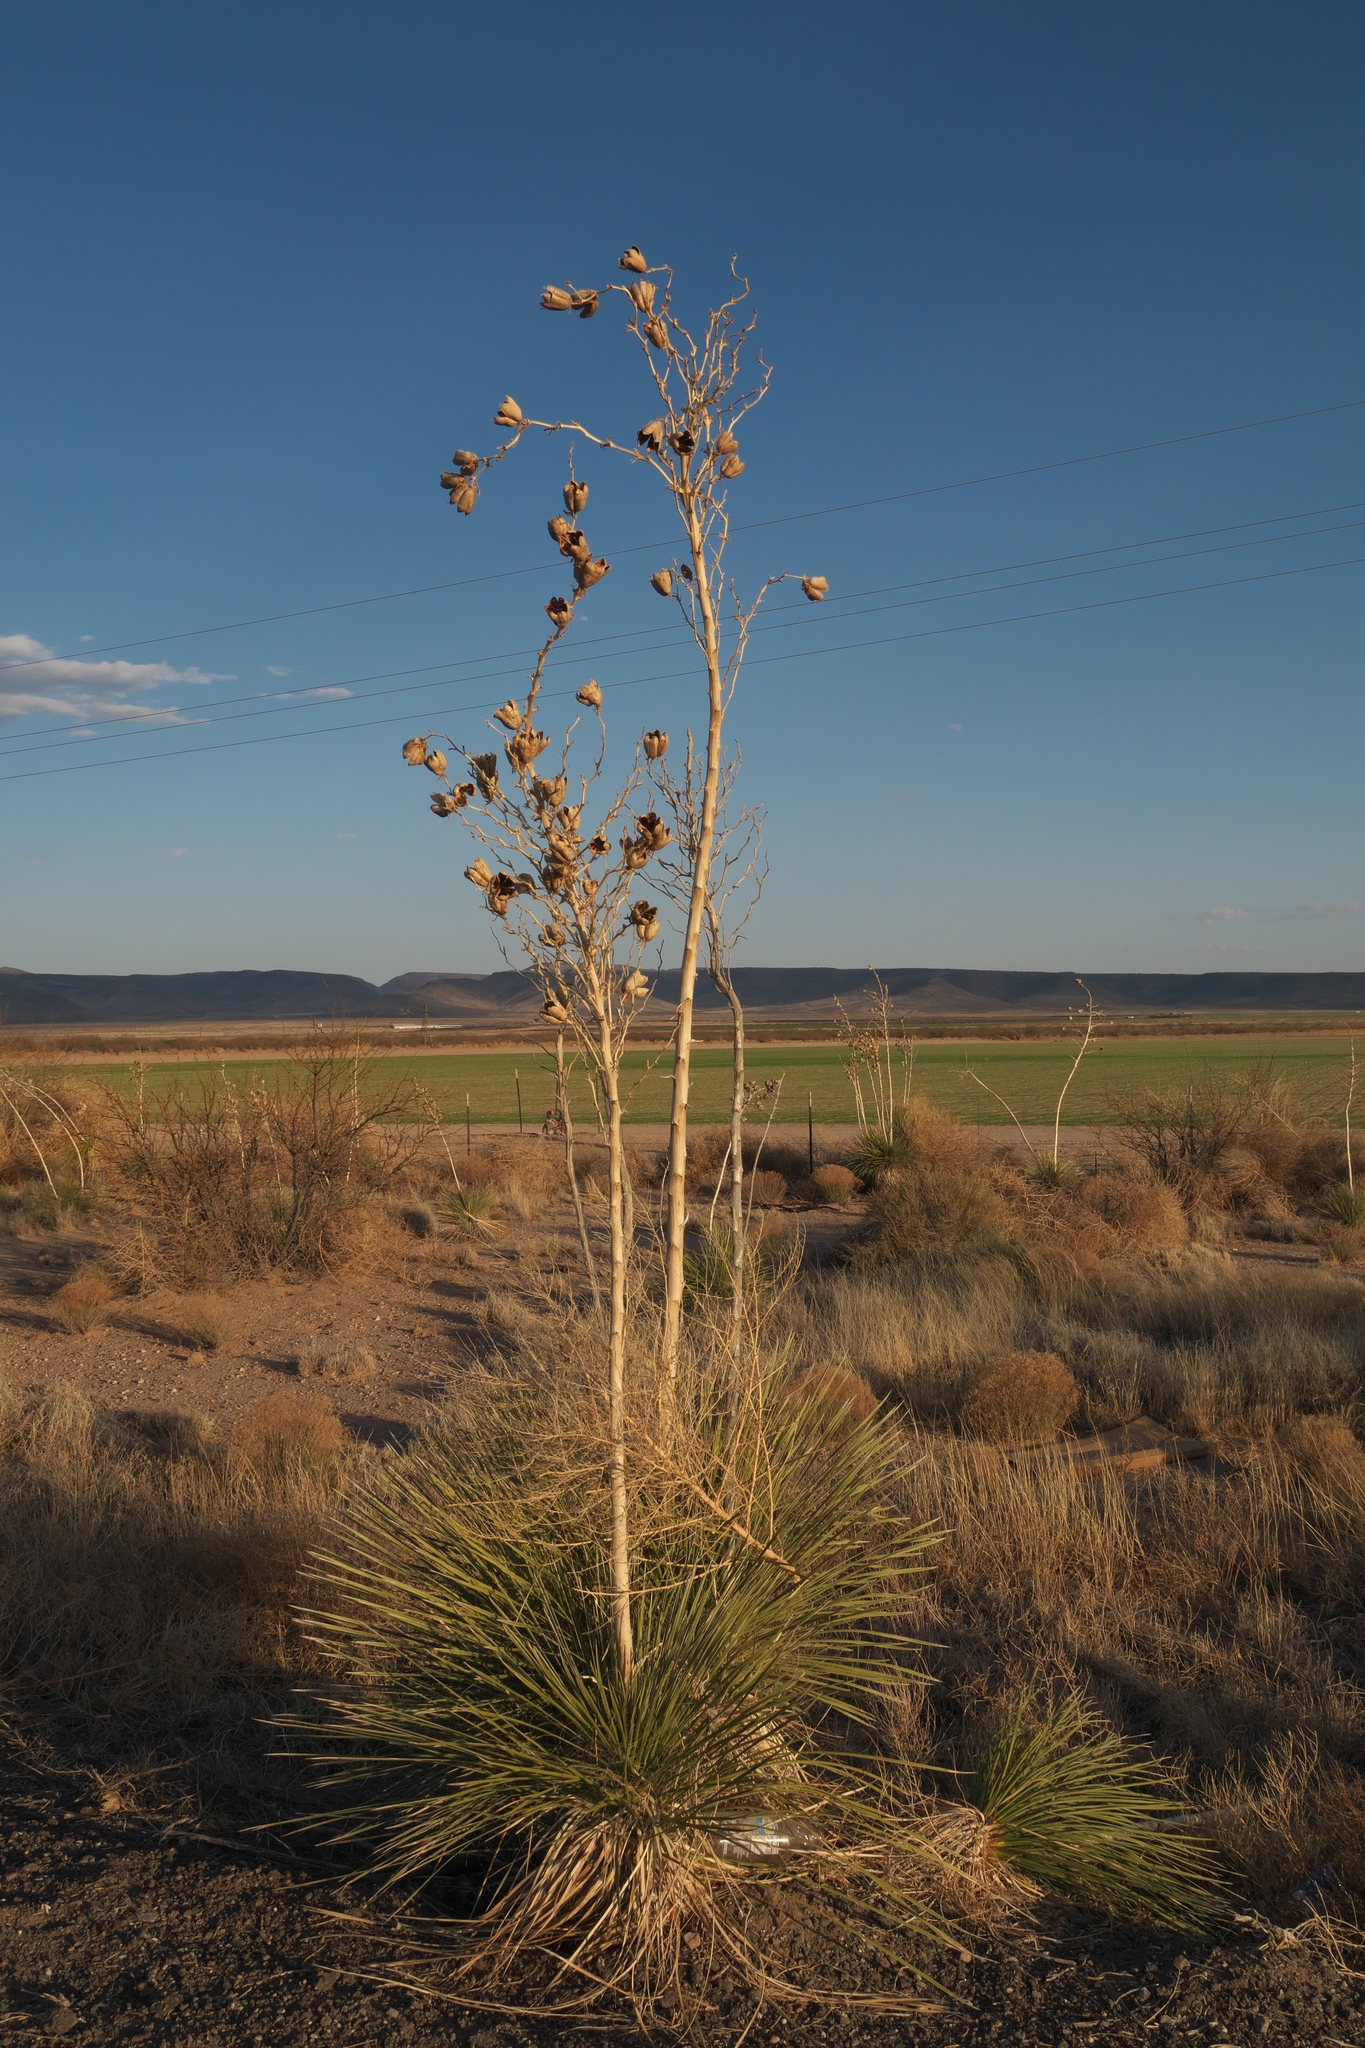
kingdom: Plantae
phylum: Tracheophyta
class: Liliopsida
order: Asparagales
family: Asparagaceae
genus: Yucca
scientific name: Yucca elata
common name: Palmella
